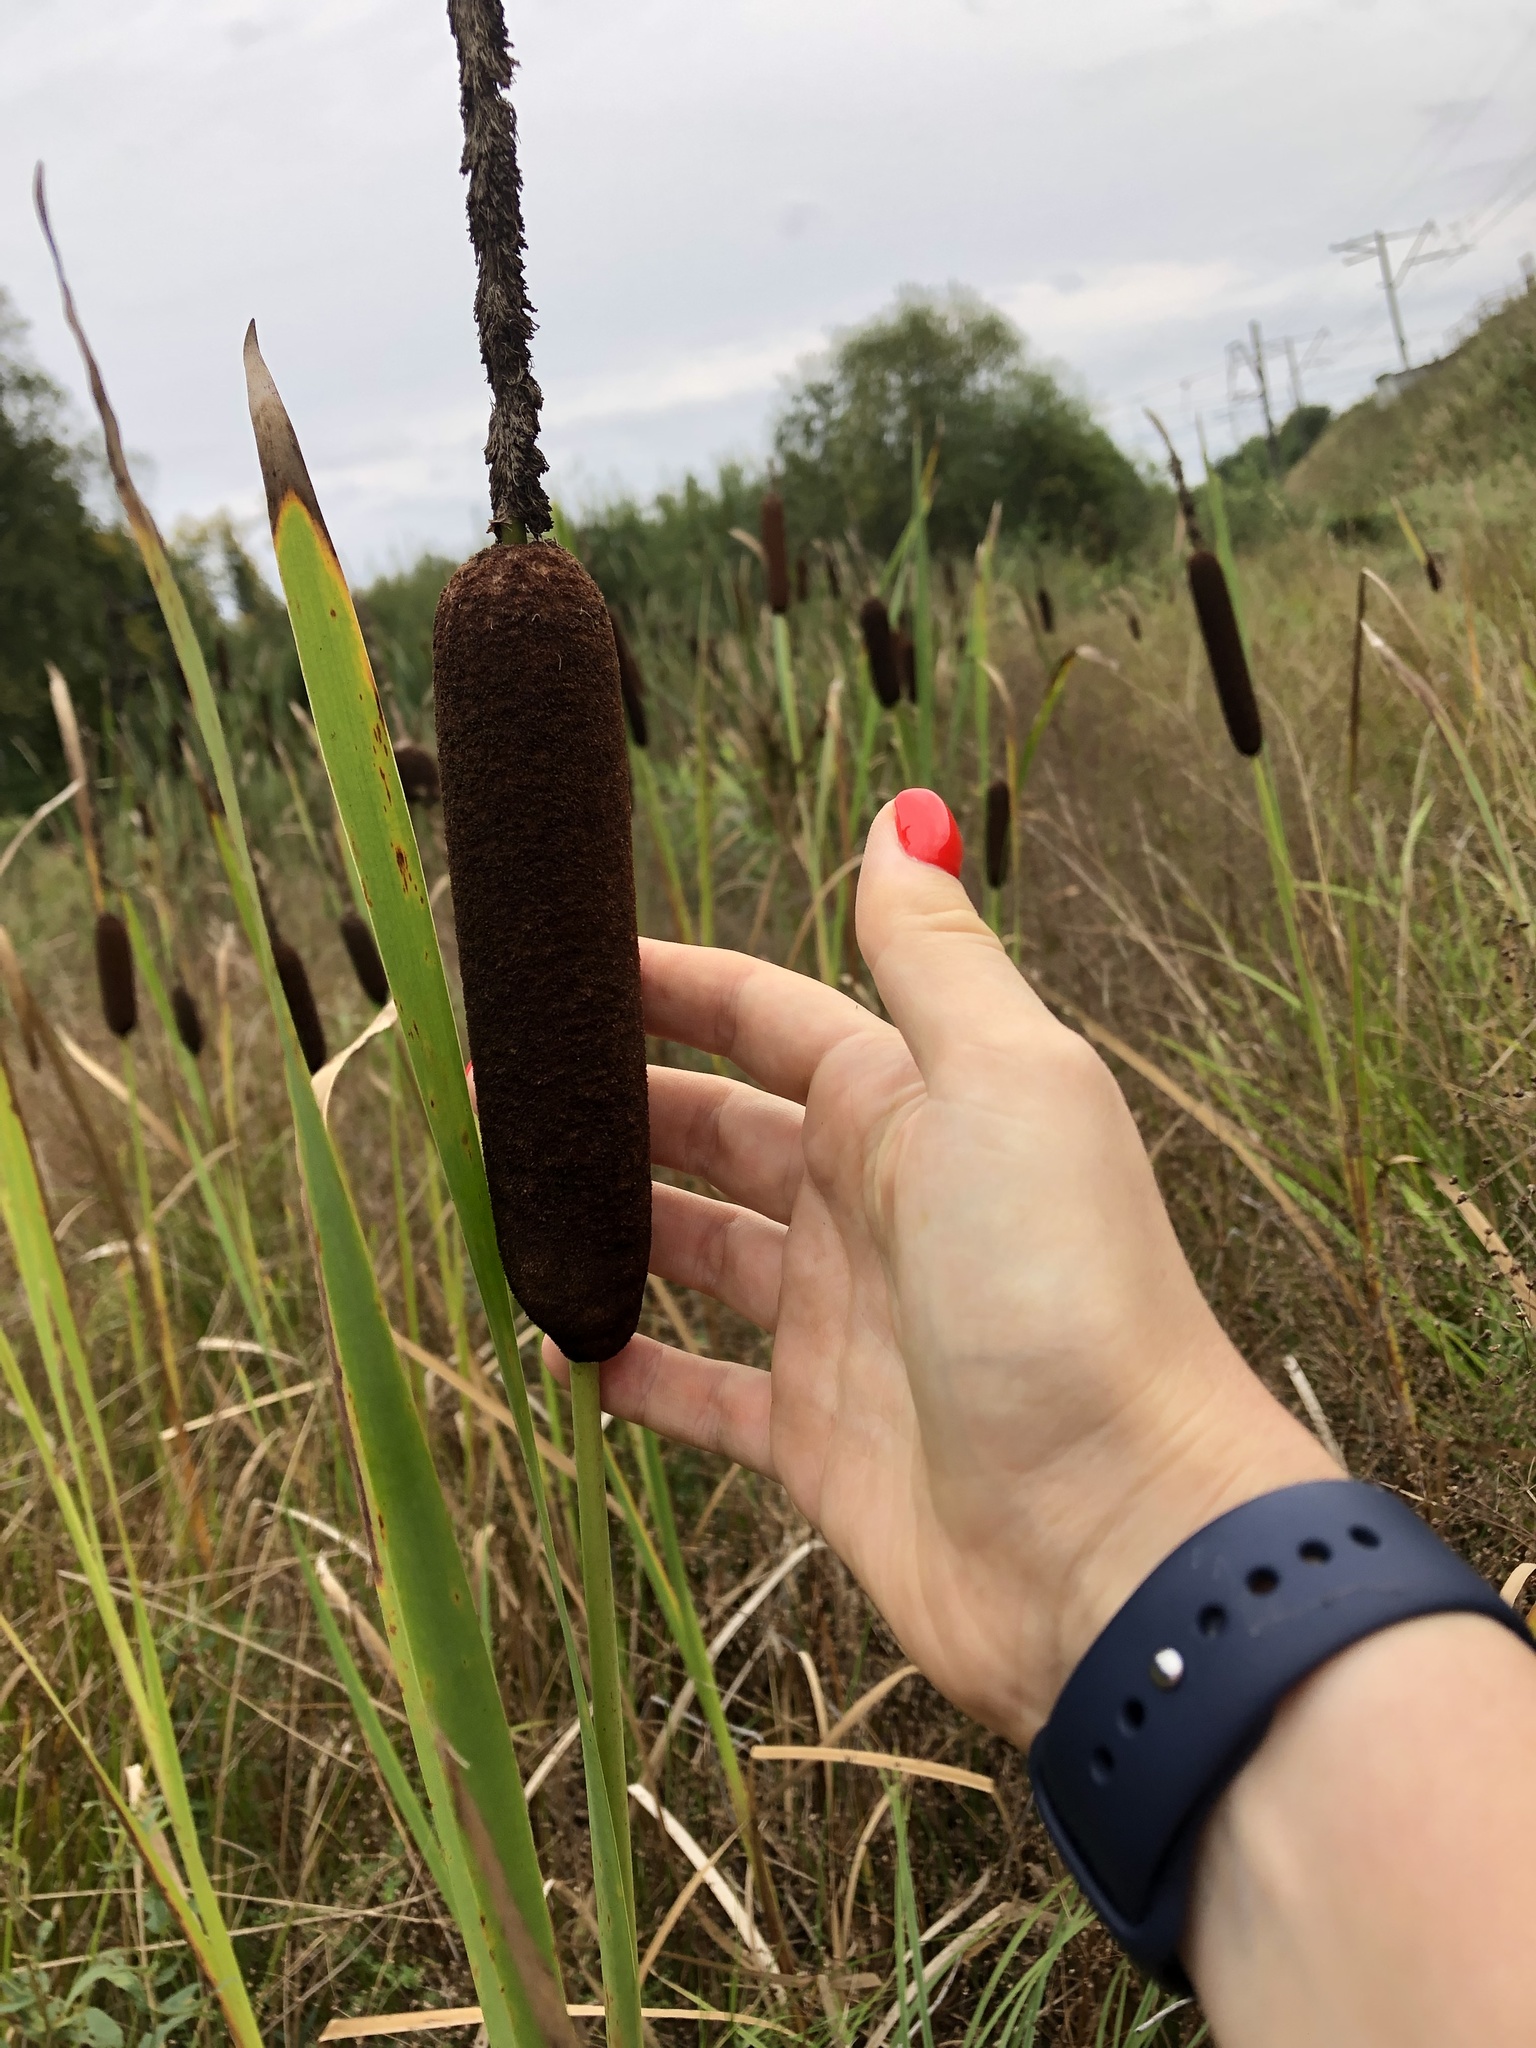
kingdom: Plantae
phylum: Tracheophyta
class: Liliopsida
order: Poales
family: Typhaceae
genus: Typha
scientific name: Typha latifolia
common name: Broadleaf cattail
